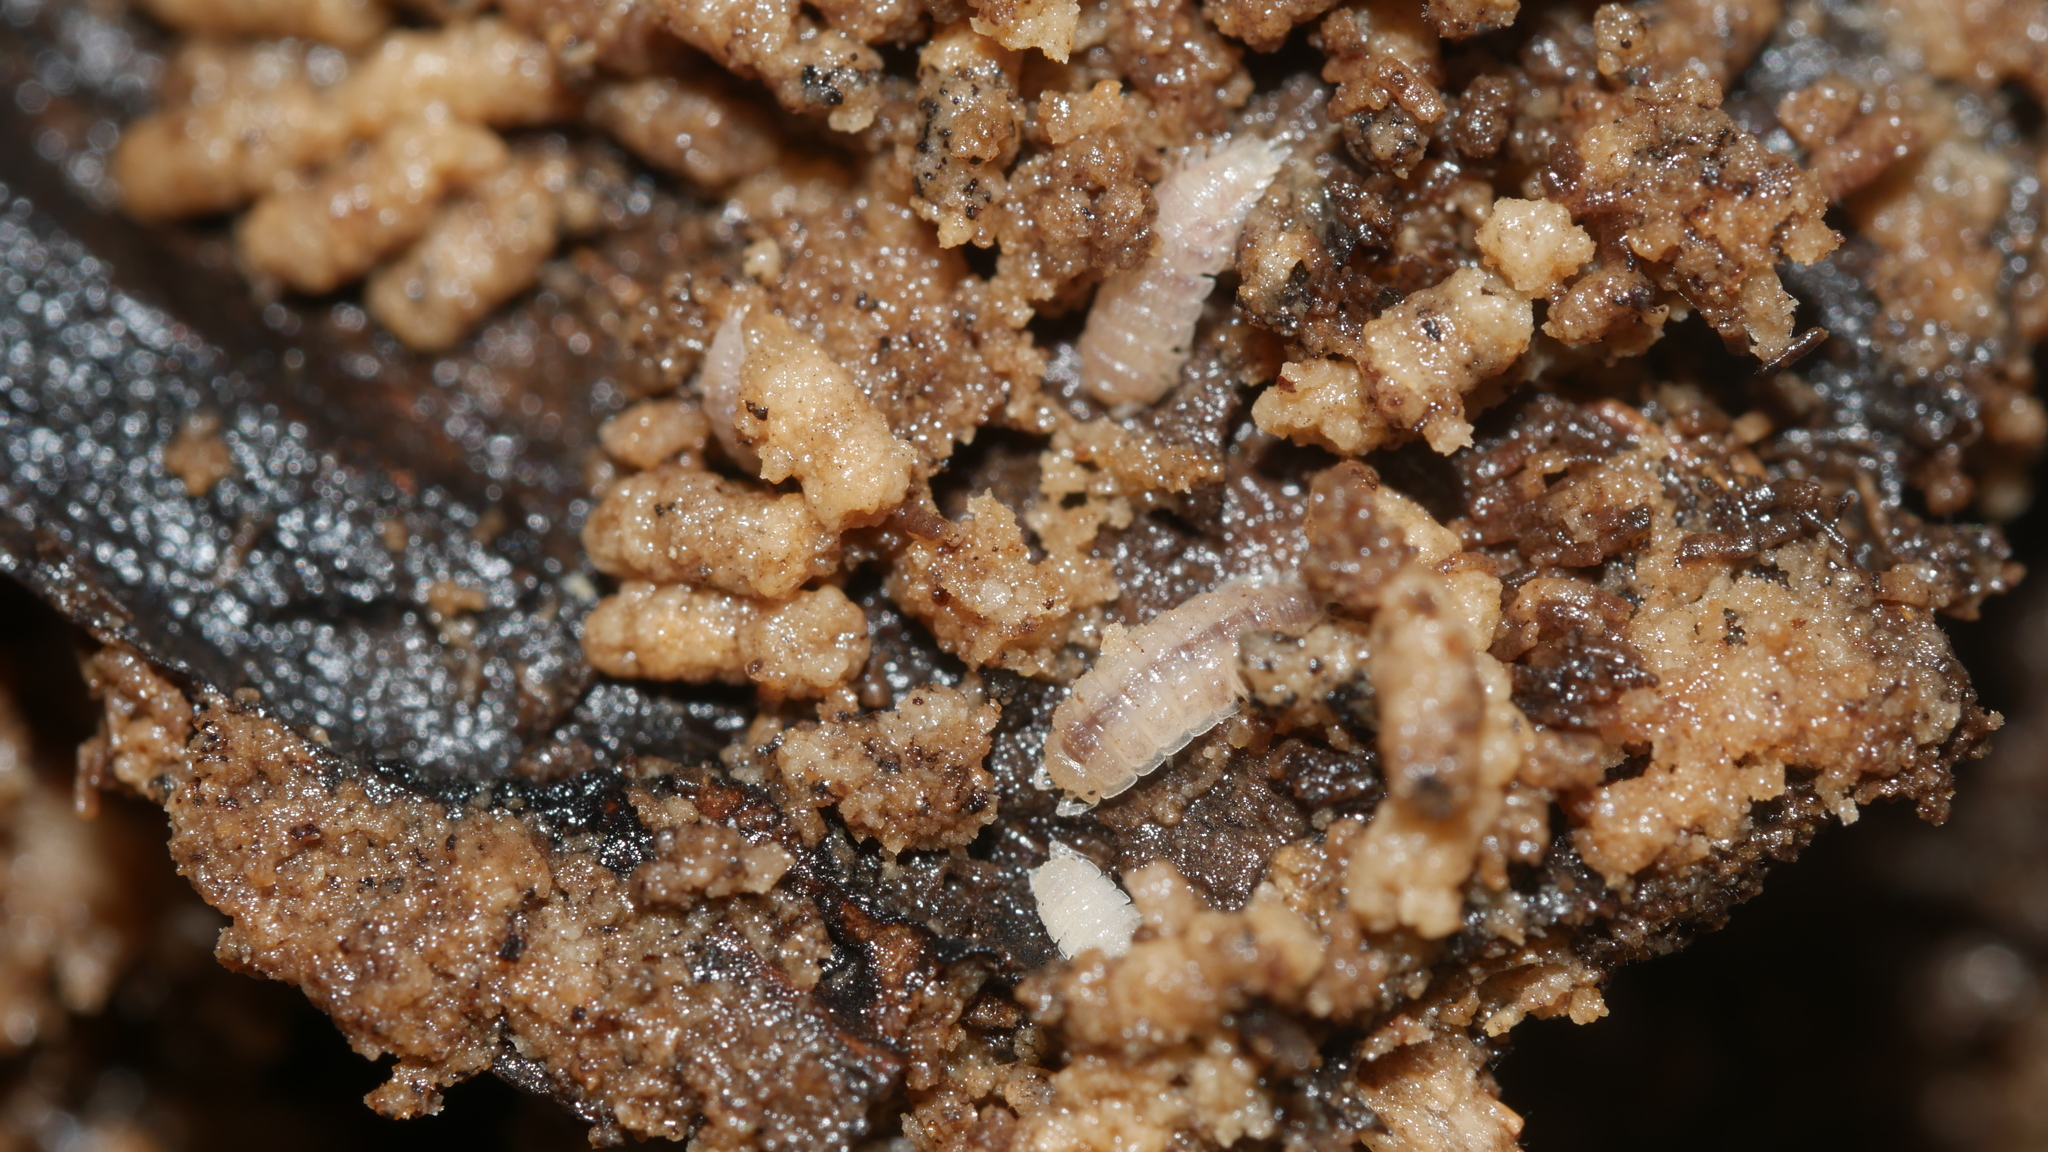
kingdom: Animalia
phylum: Arthropoda
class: Malacostraca
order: Isopoda
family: Trichoniscidae
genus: Haplophthalmus
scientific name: Haplophthalmus danicus
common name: Pillbug
